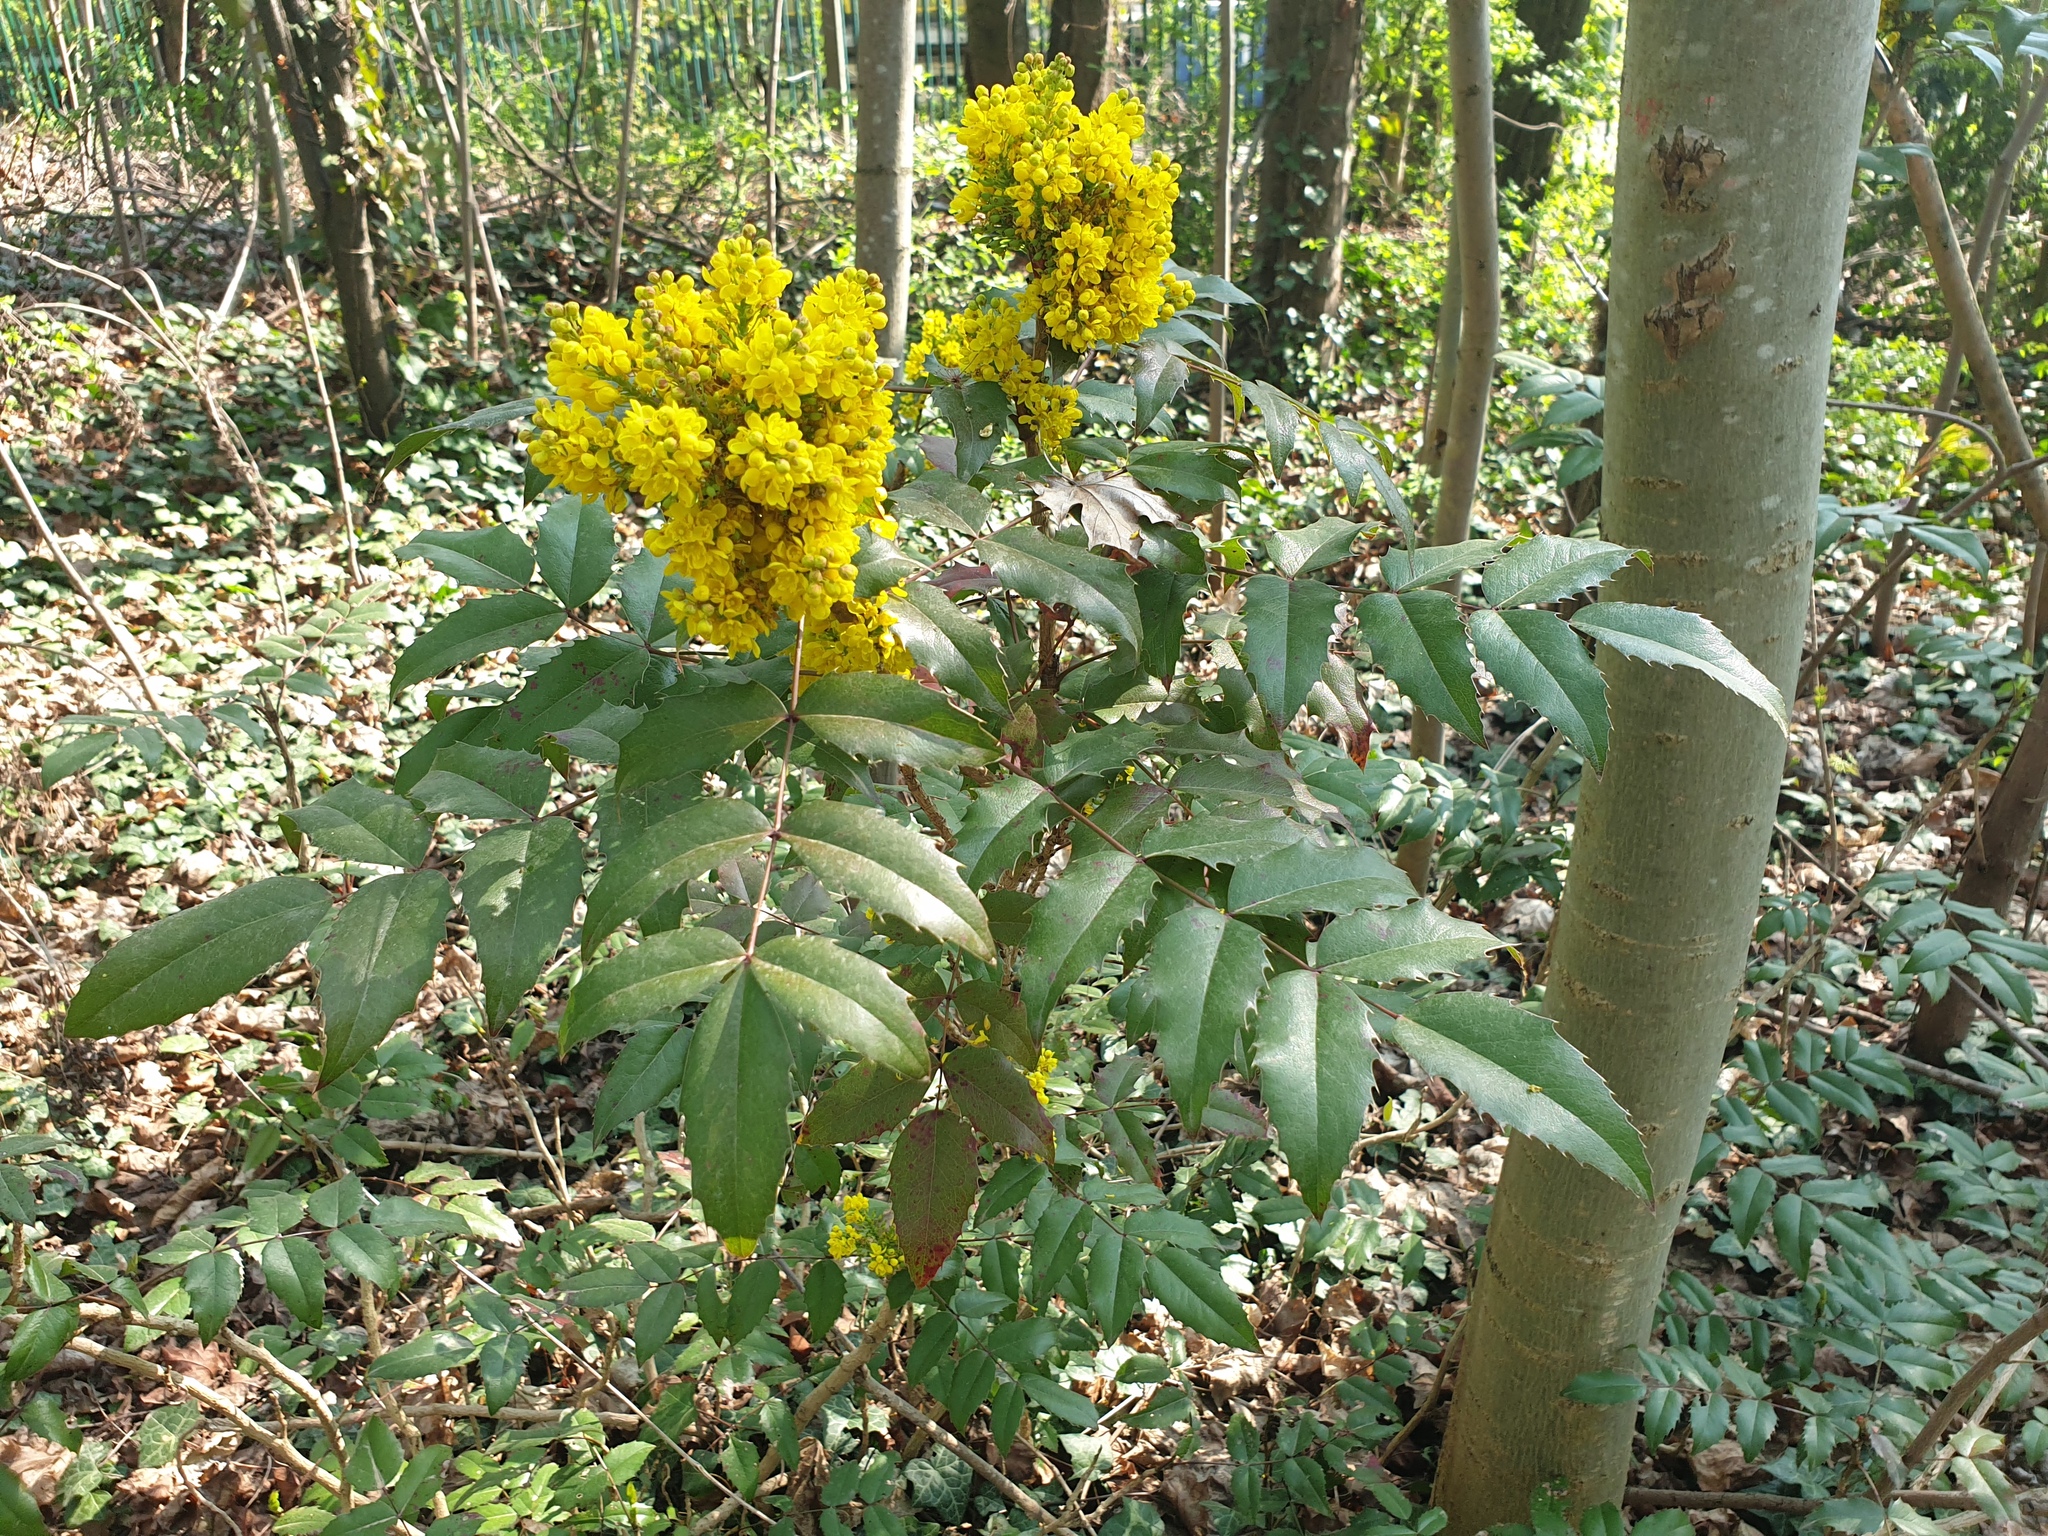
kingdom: Plantae
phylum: Tracheophyta
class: Magnoliopsida
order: Ranunculales
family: Berberidaceae
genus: Mahonia
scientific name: Mahonia aquifolium
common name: Oregon-grape
